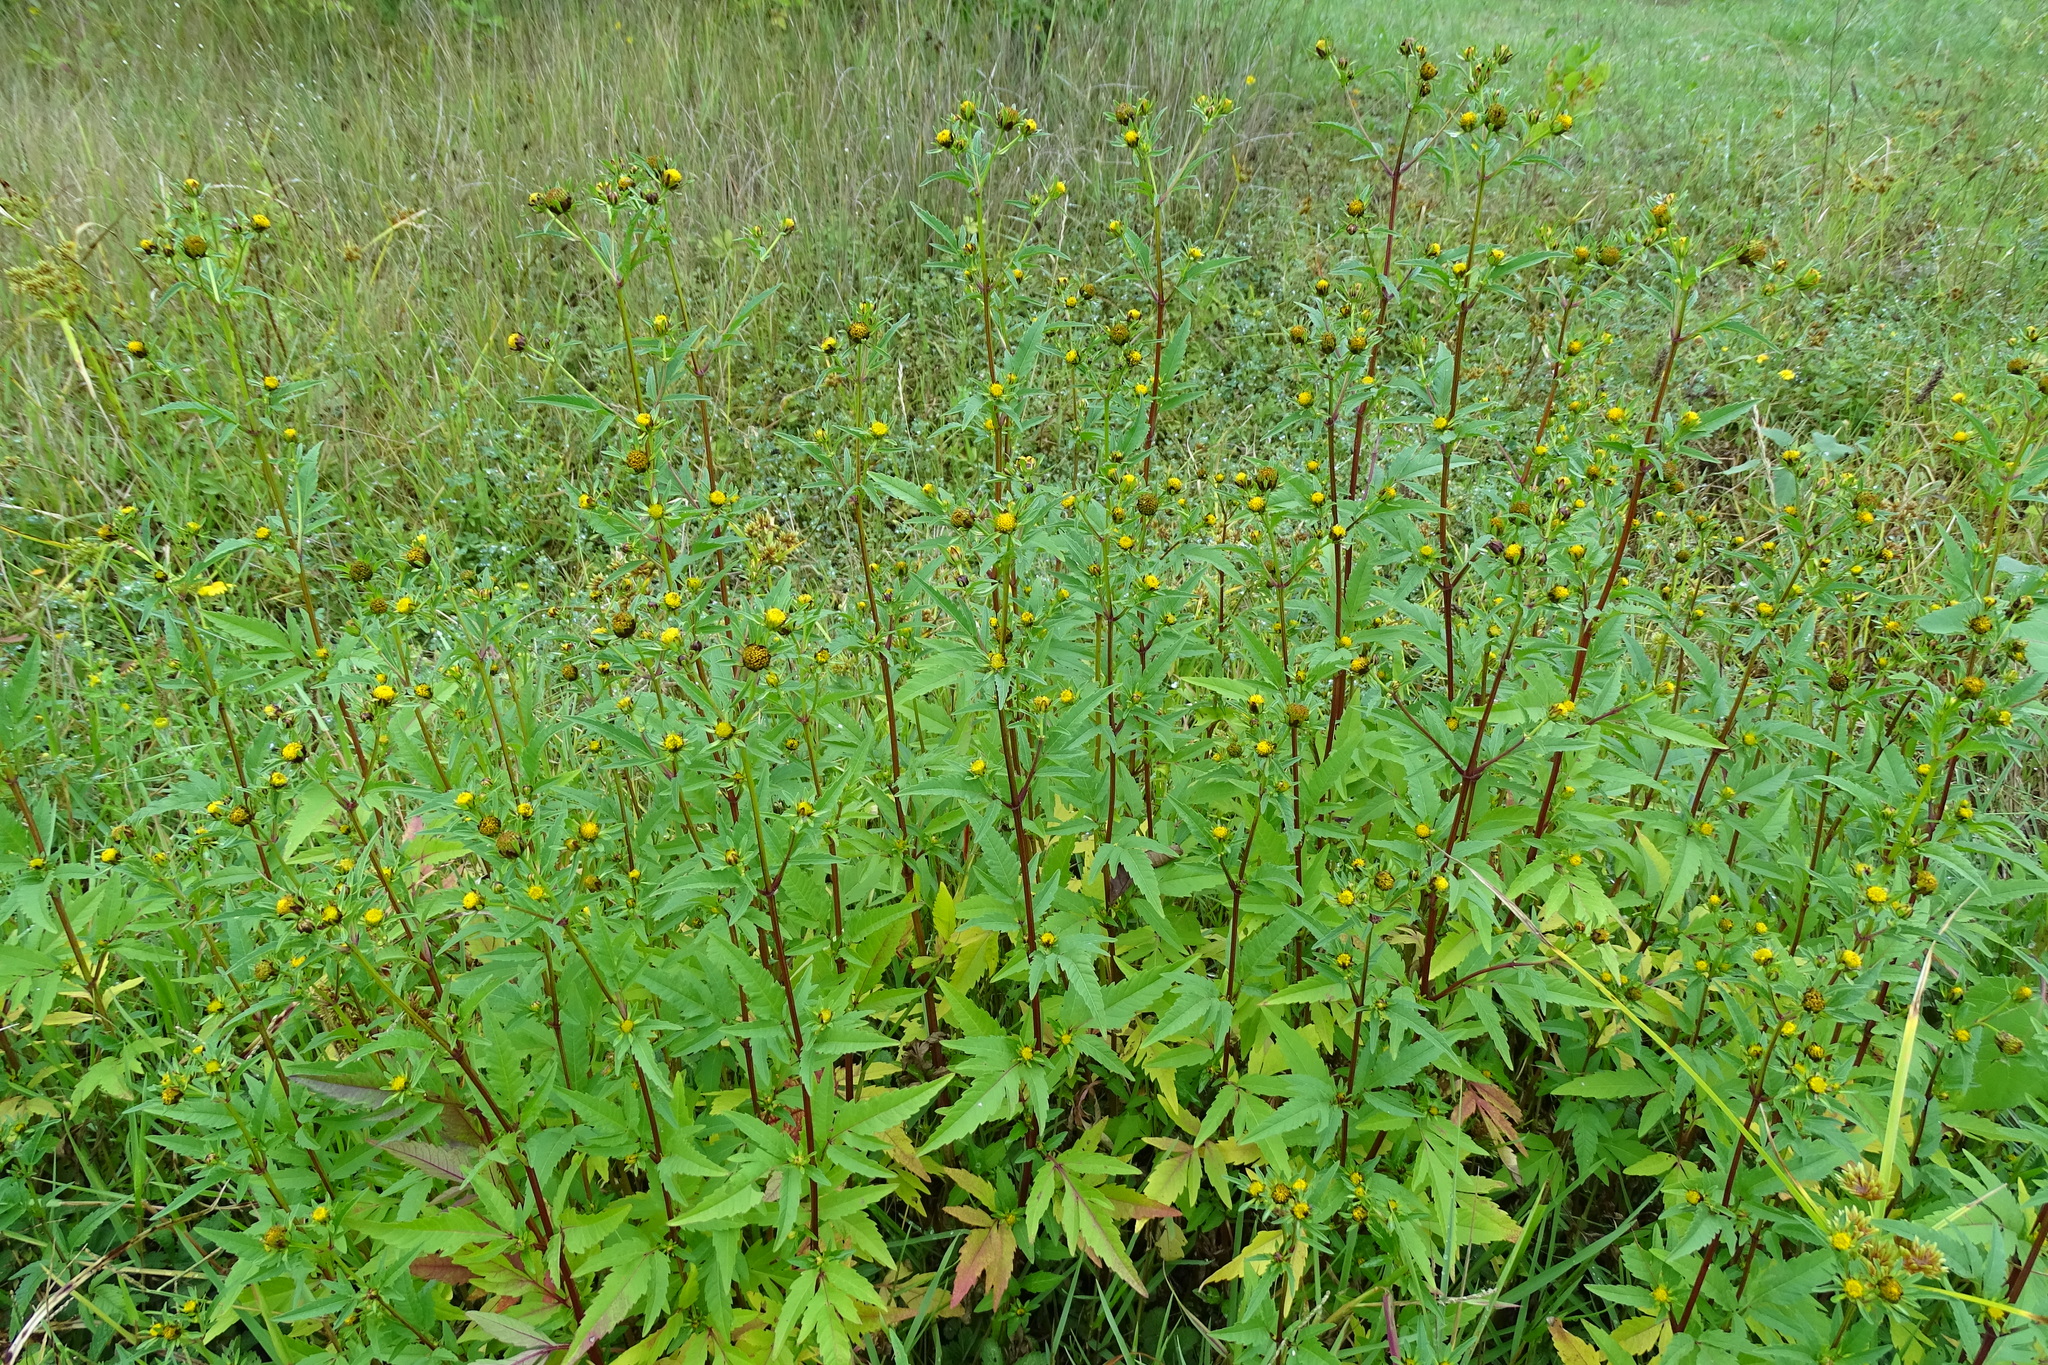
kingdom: Plantae
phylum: Tracheophyta
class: Magnoliopsida
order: Asterales
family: Asteraceae
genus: Bidens
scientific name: Bidens tripartita
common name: Trifid bur-marigold
